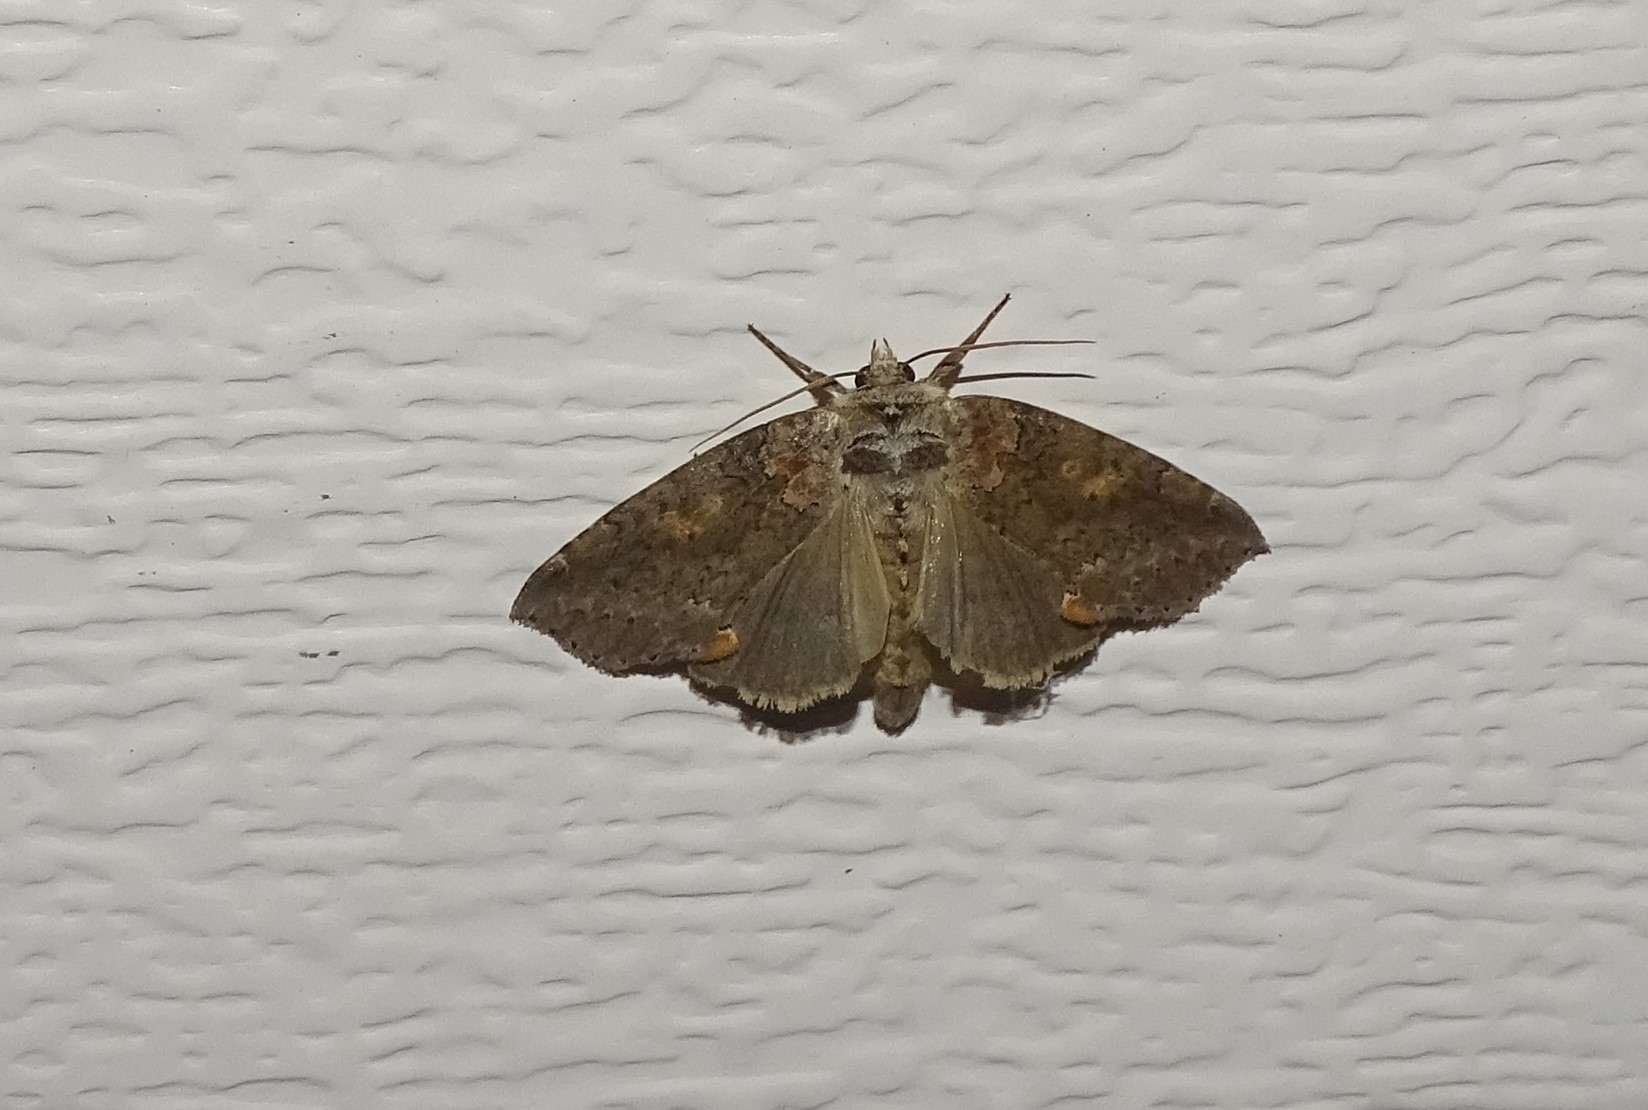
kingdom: Animalia
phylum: Arthropoda
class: Insecta
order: Lepidoptera
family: Drepanidae
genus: Pseudothyatira
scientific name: Pseudothyatira cymatophoroides
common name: Tufted thyatirid moth
